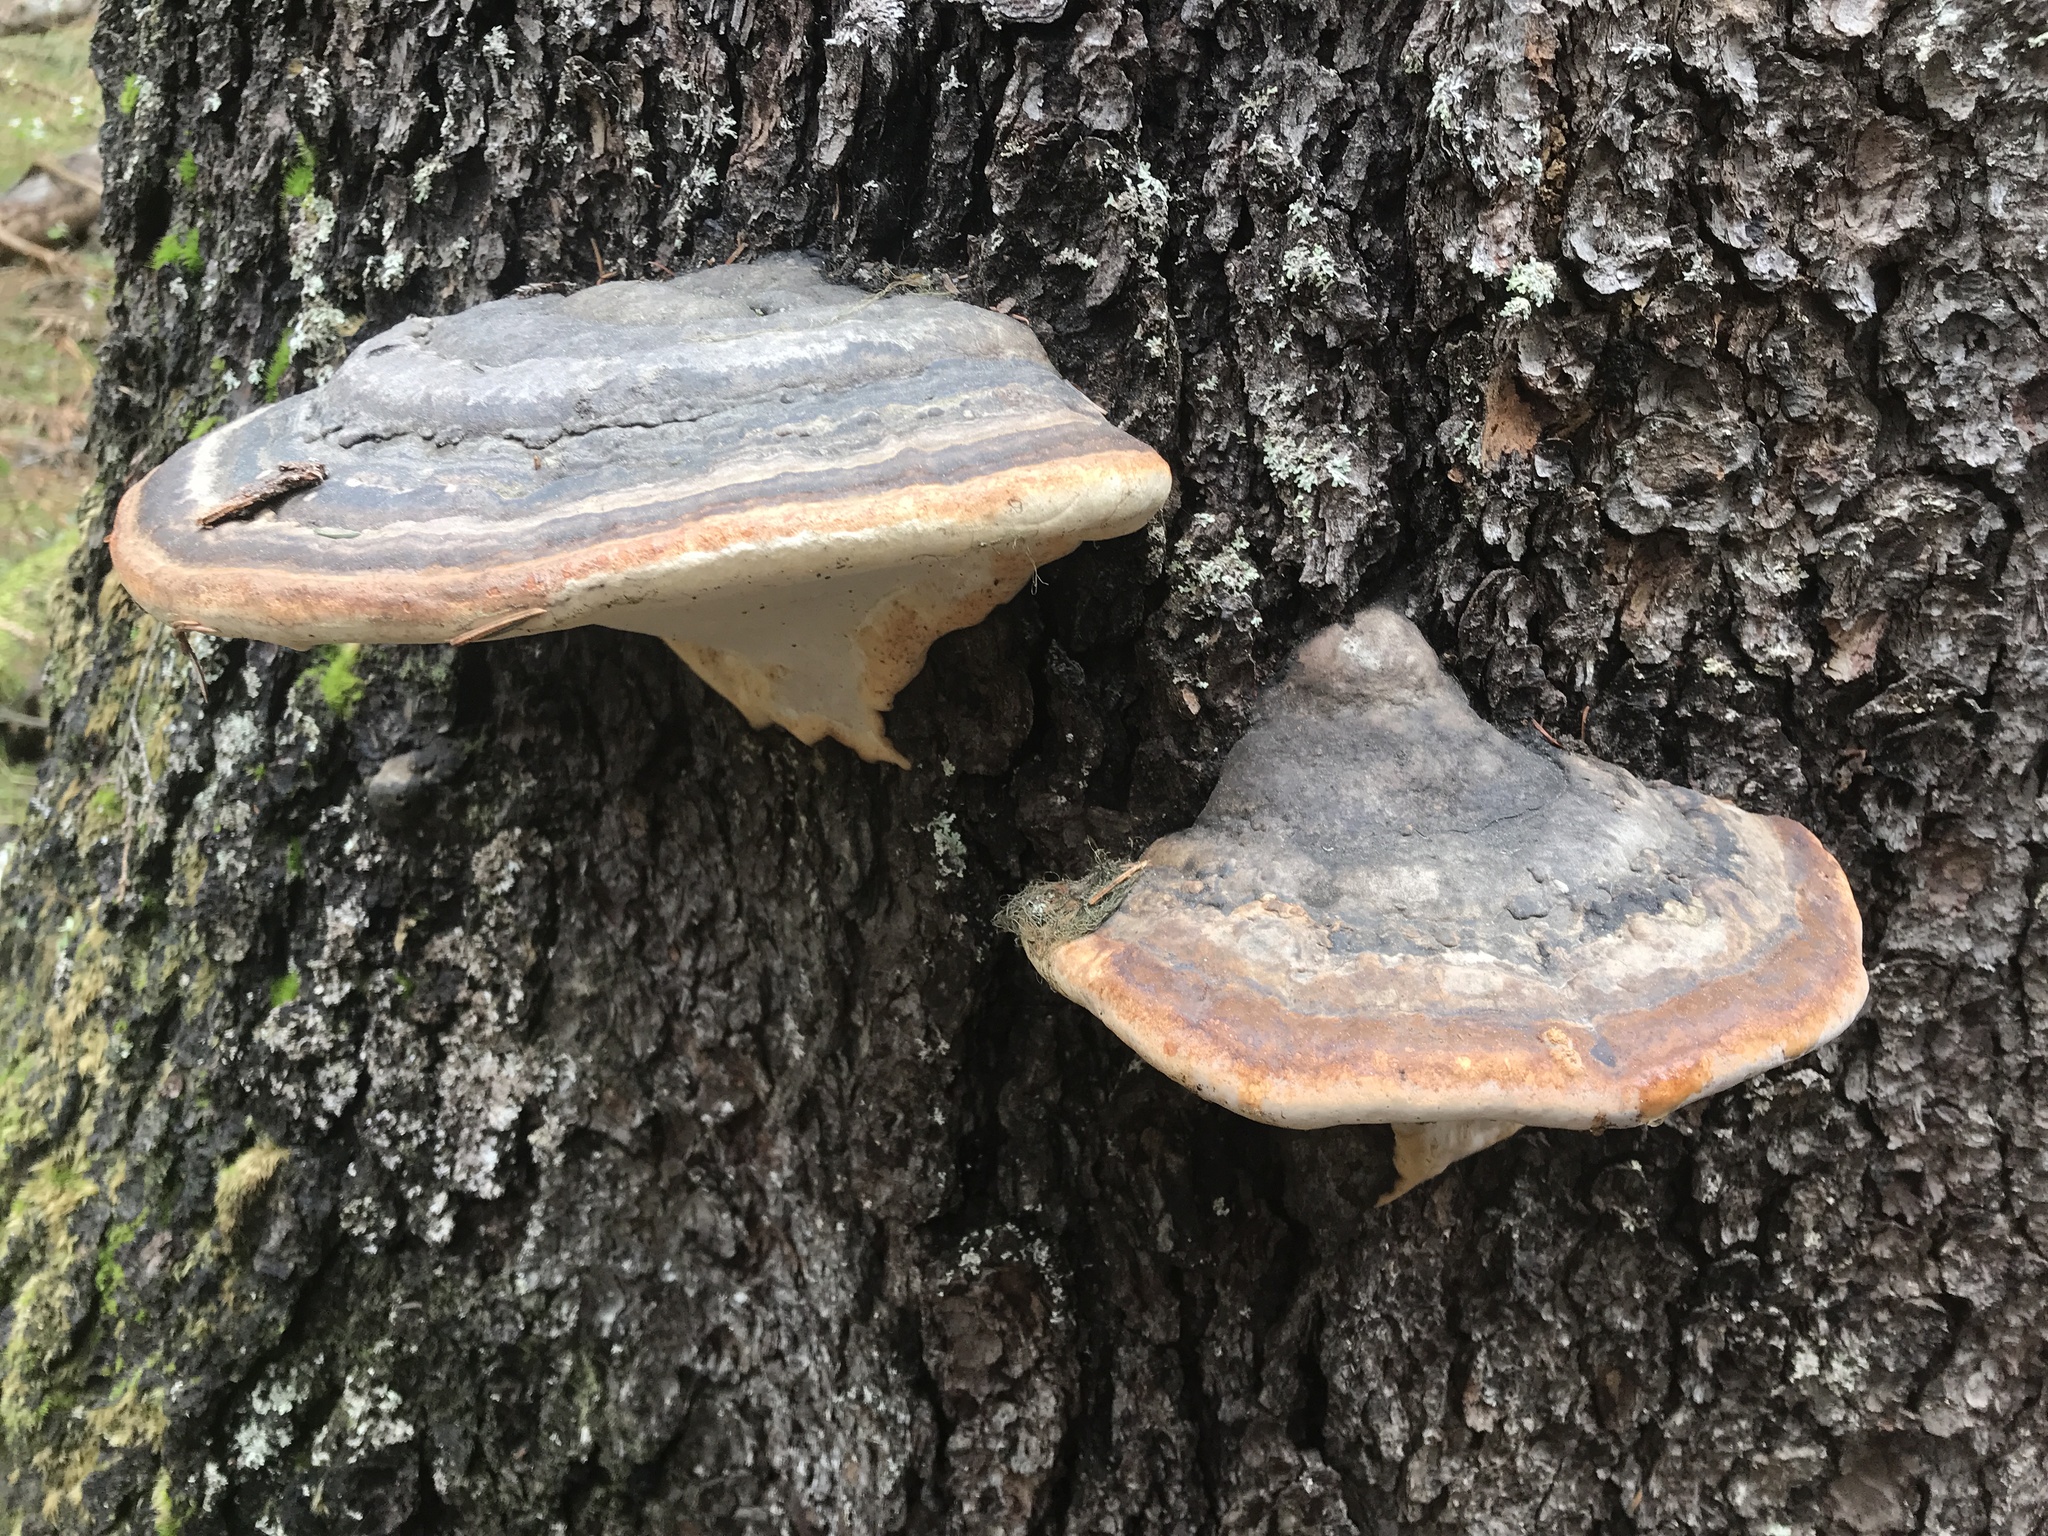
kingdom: Fungi
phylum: Basidiomycota
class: Agaricomycetes
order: Polyporales
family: Fomitopsidaceae
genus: Fomitopsis
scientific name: Fomitopsis mounceae
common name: Northern red belt
